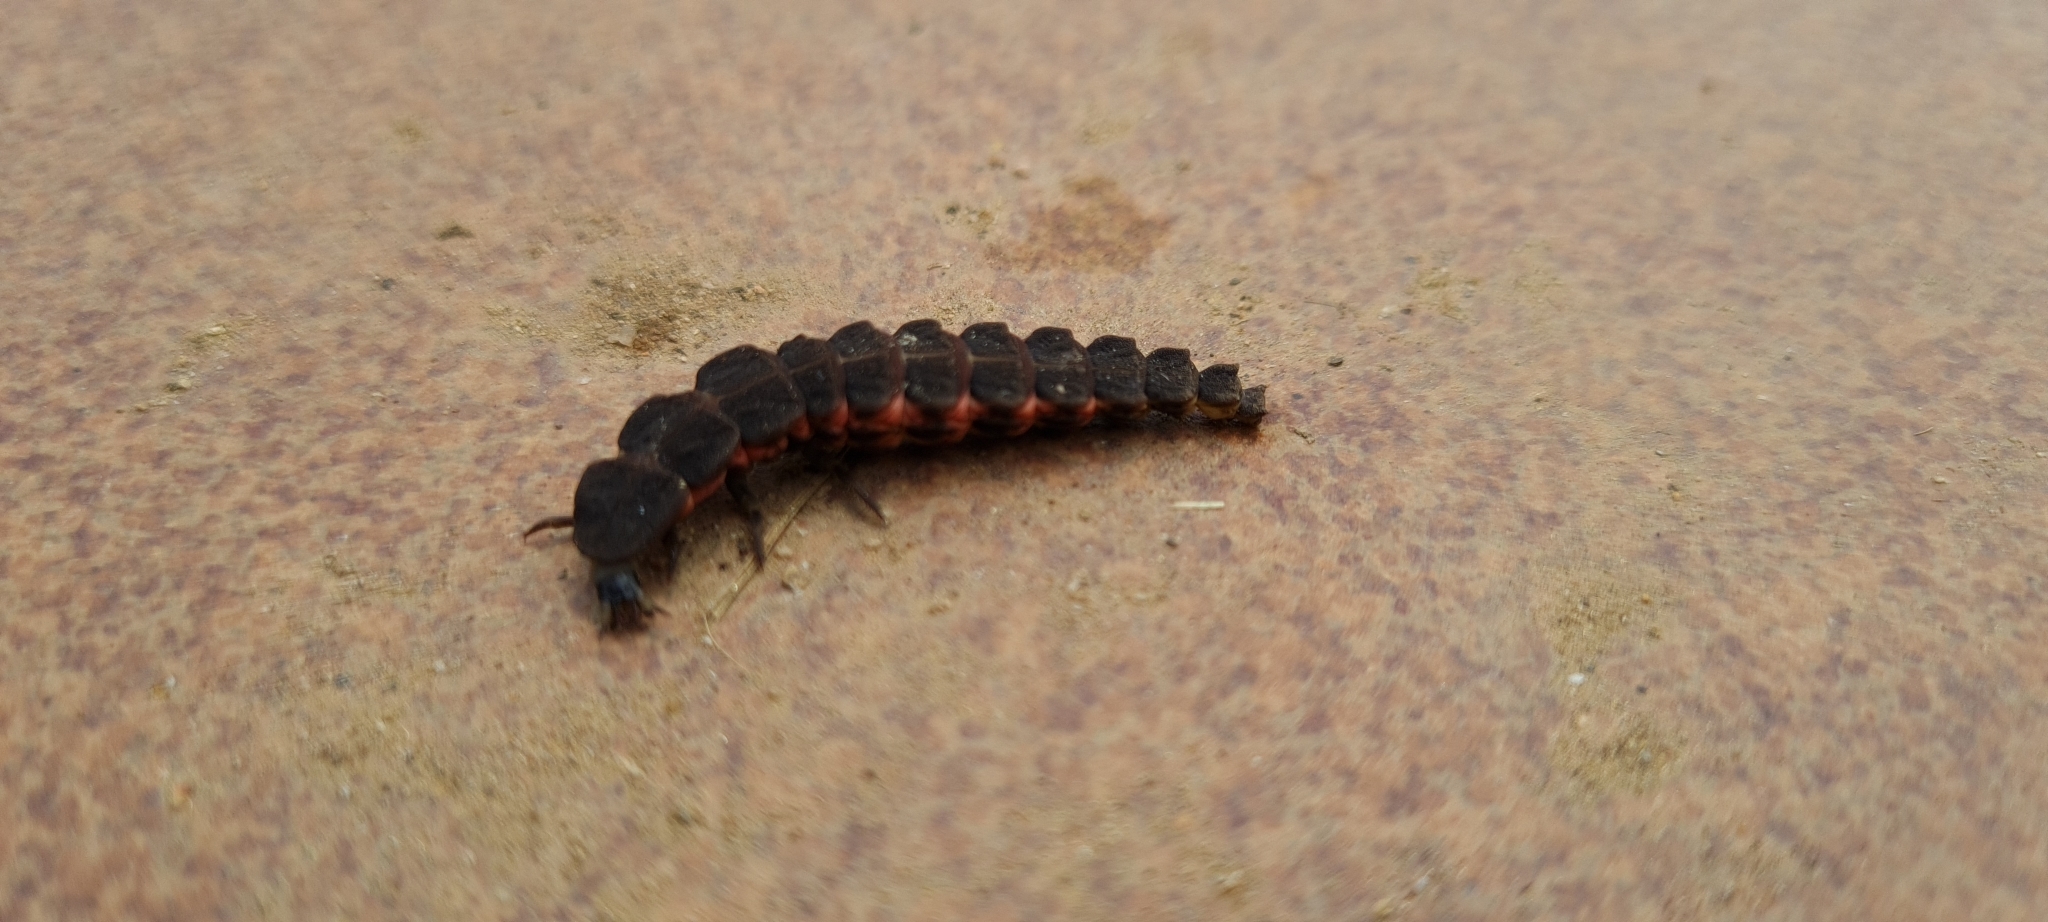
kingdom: Animalia
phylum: Arthropoda
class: Insecta
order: Coleoptera
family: Lampyridae
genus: Nyctophila
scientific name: Nyctophila reichii
